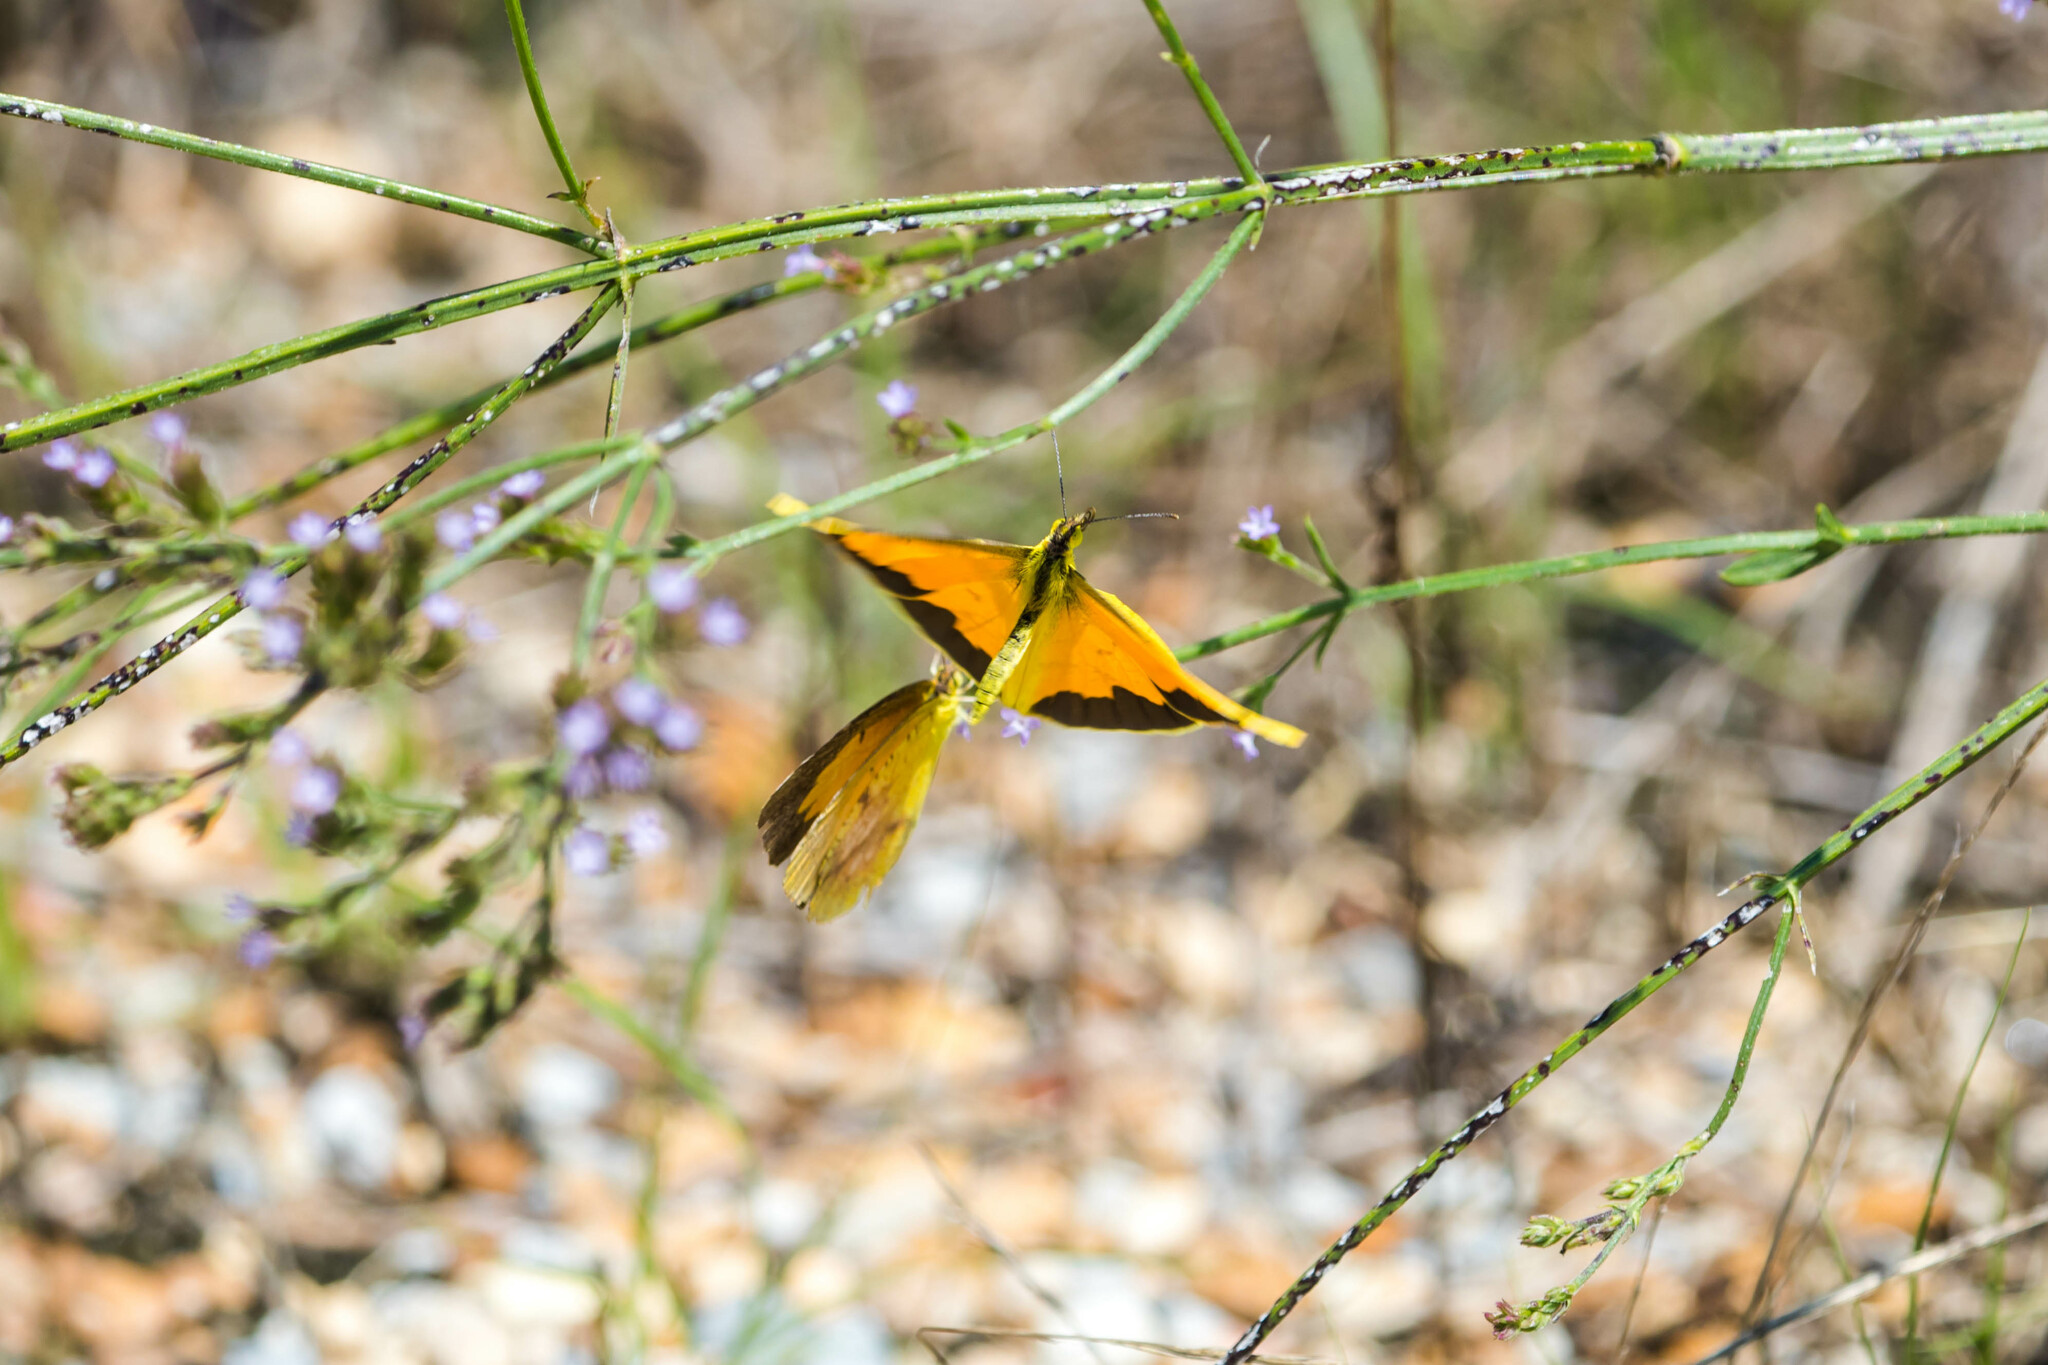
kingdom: Animalia
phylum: Arthropoda
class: Insecta
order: Lepidoptera
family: Pieridae
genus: Abaeis
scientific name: Abaeis nicippe
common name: Sleepy orange
